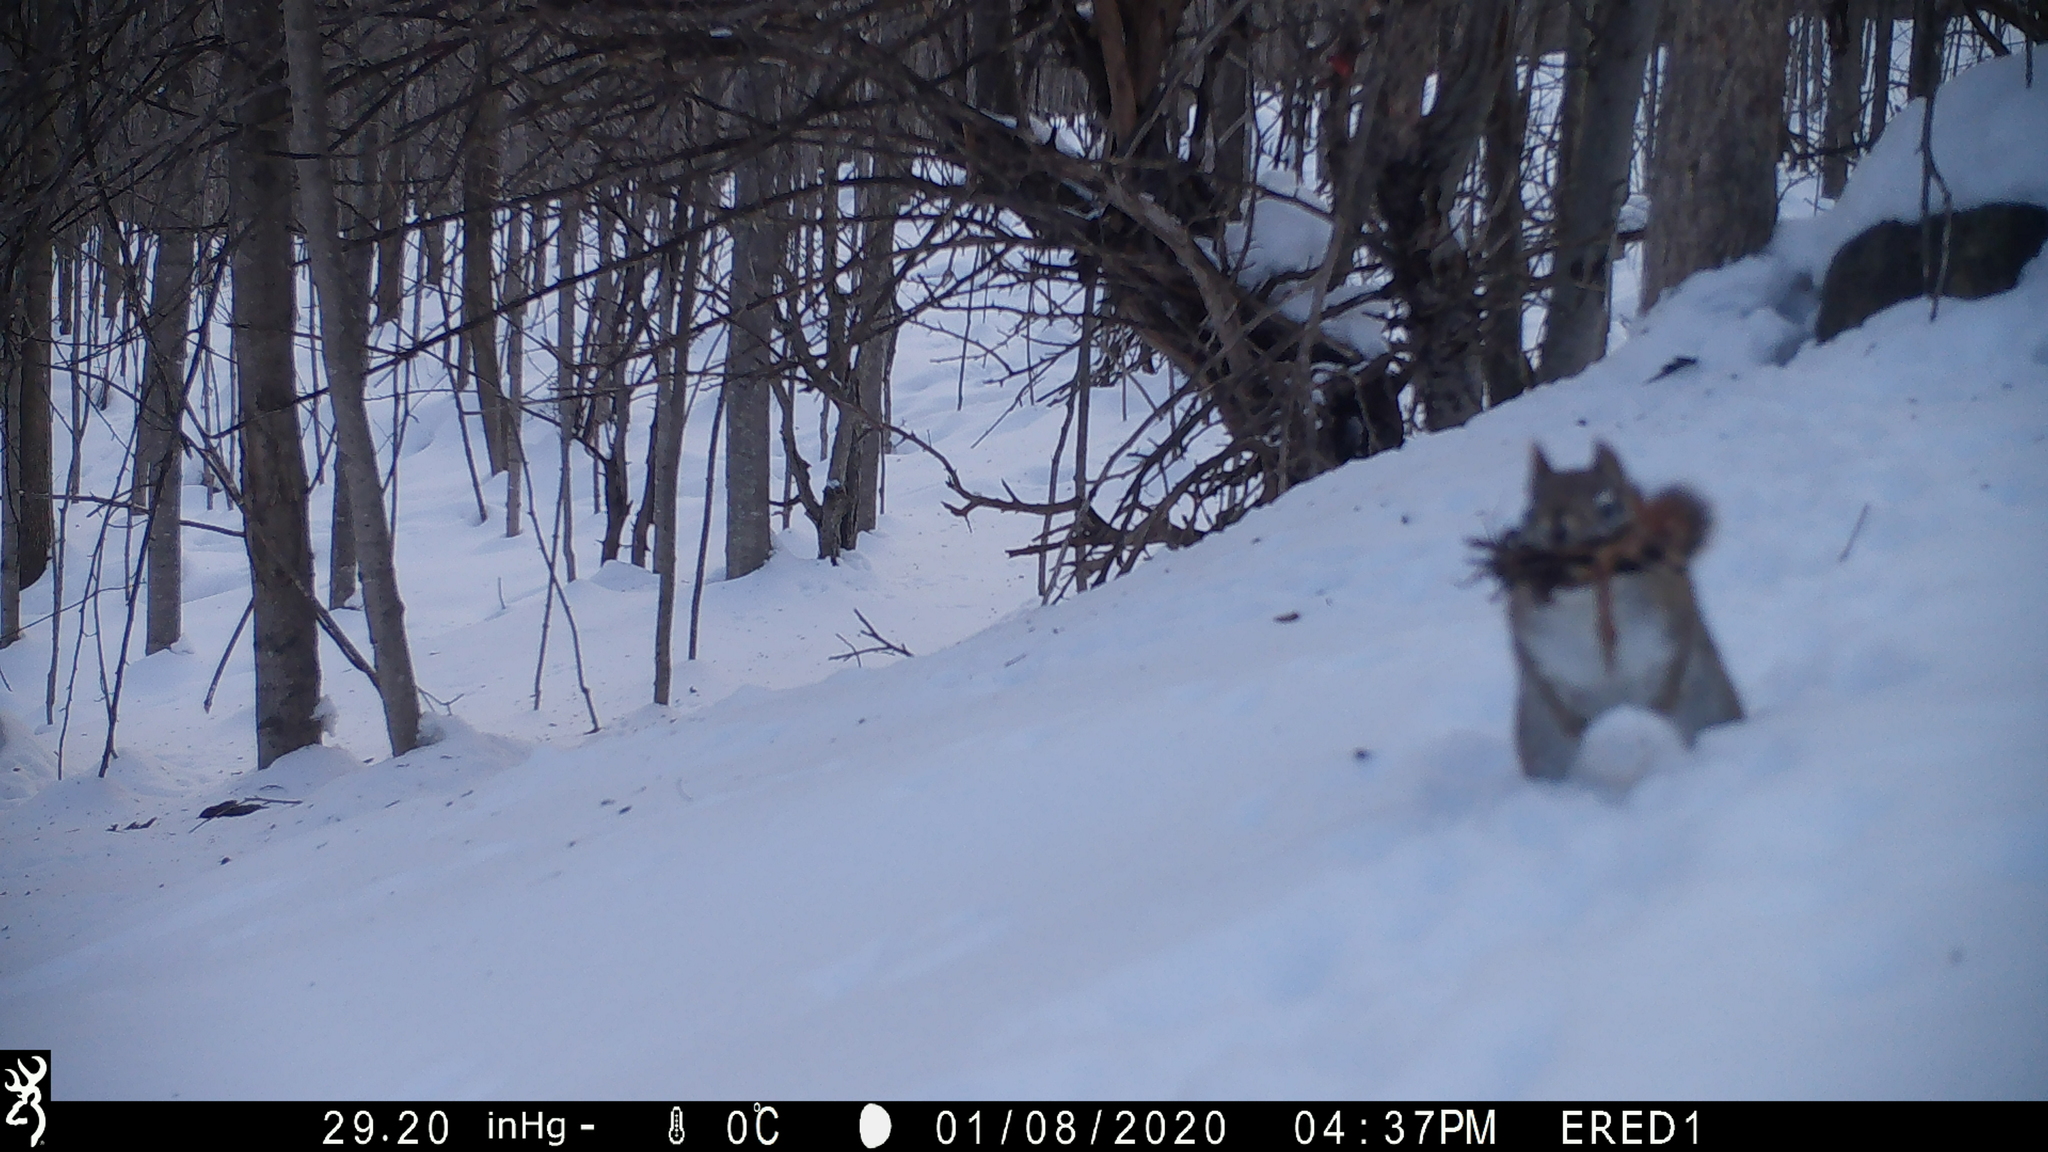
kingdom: Animalia
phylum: Chordata
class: Mammalia
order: Rodentia
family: Sciuridae
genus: Tamiasciurus
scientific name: Tamiasciurus hudsonicus
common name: Red squirrel
